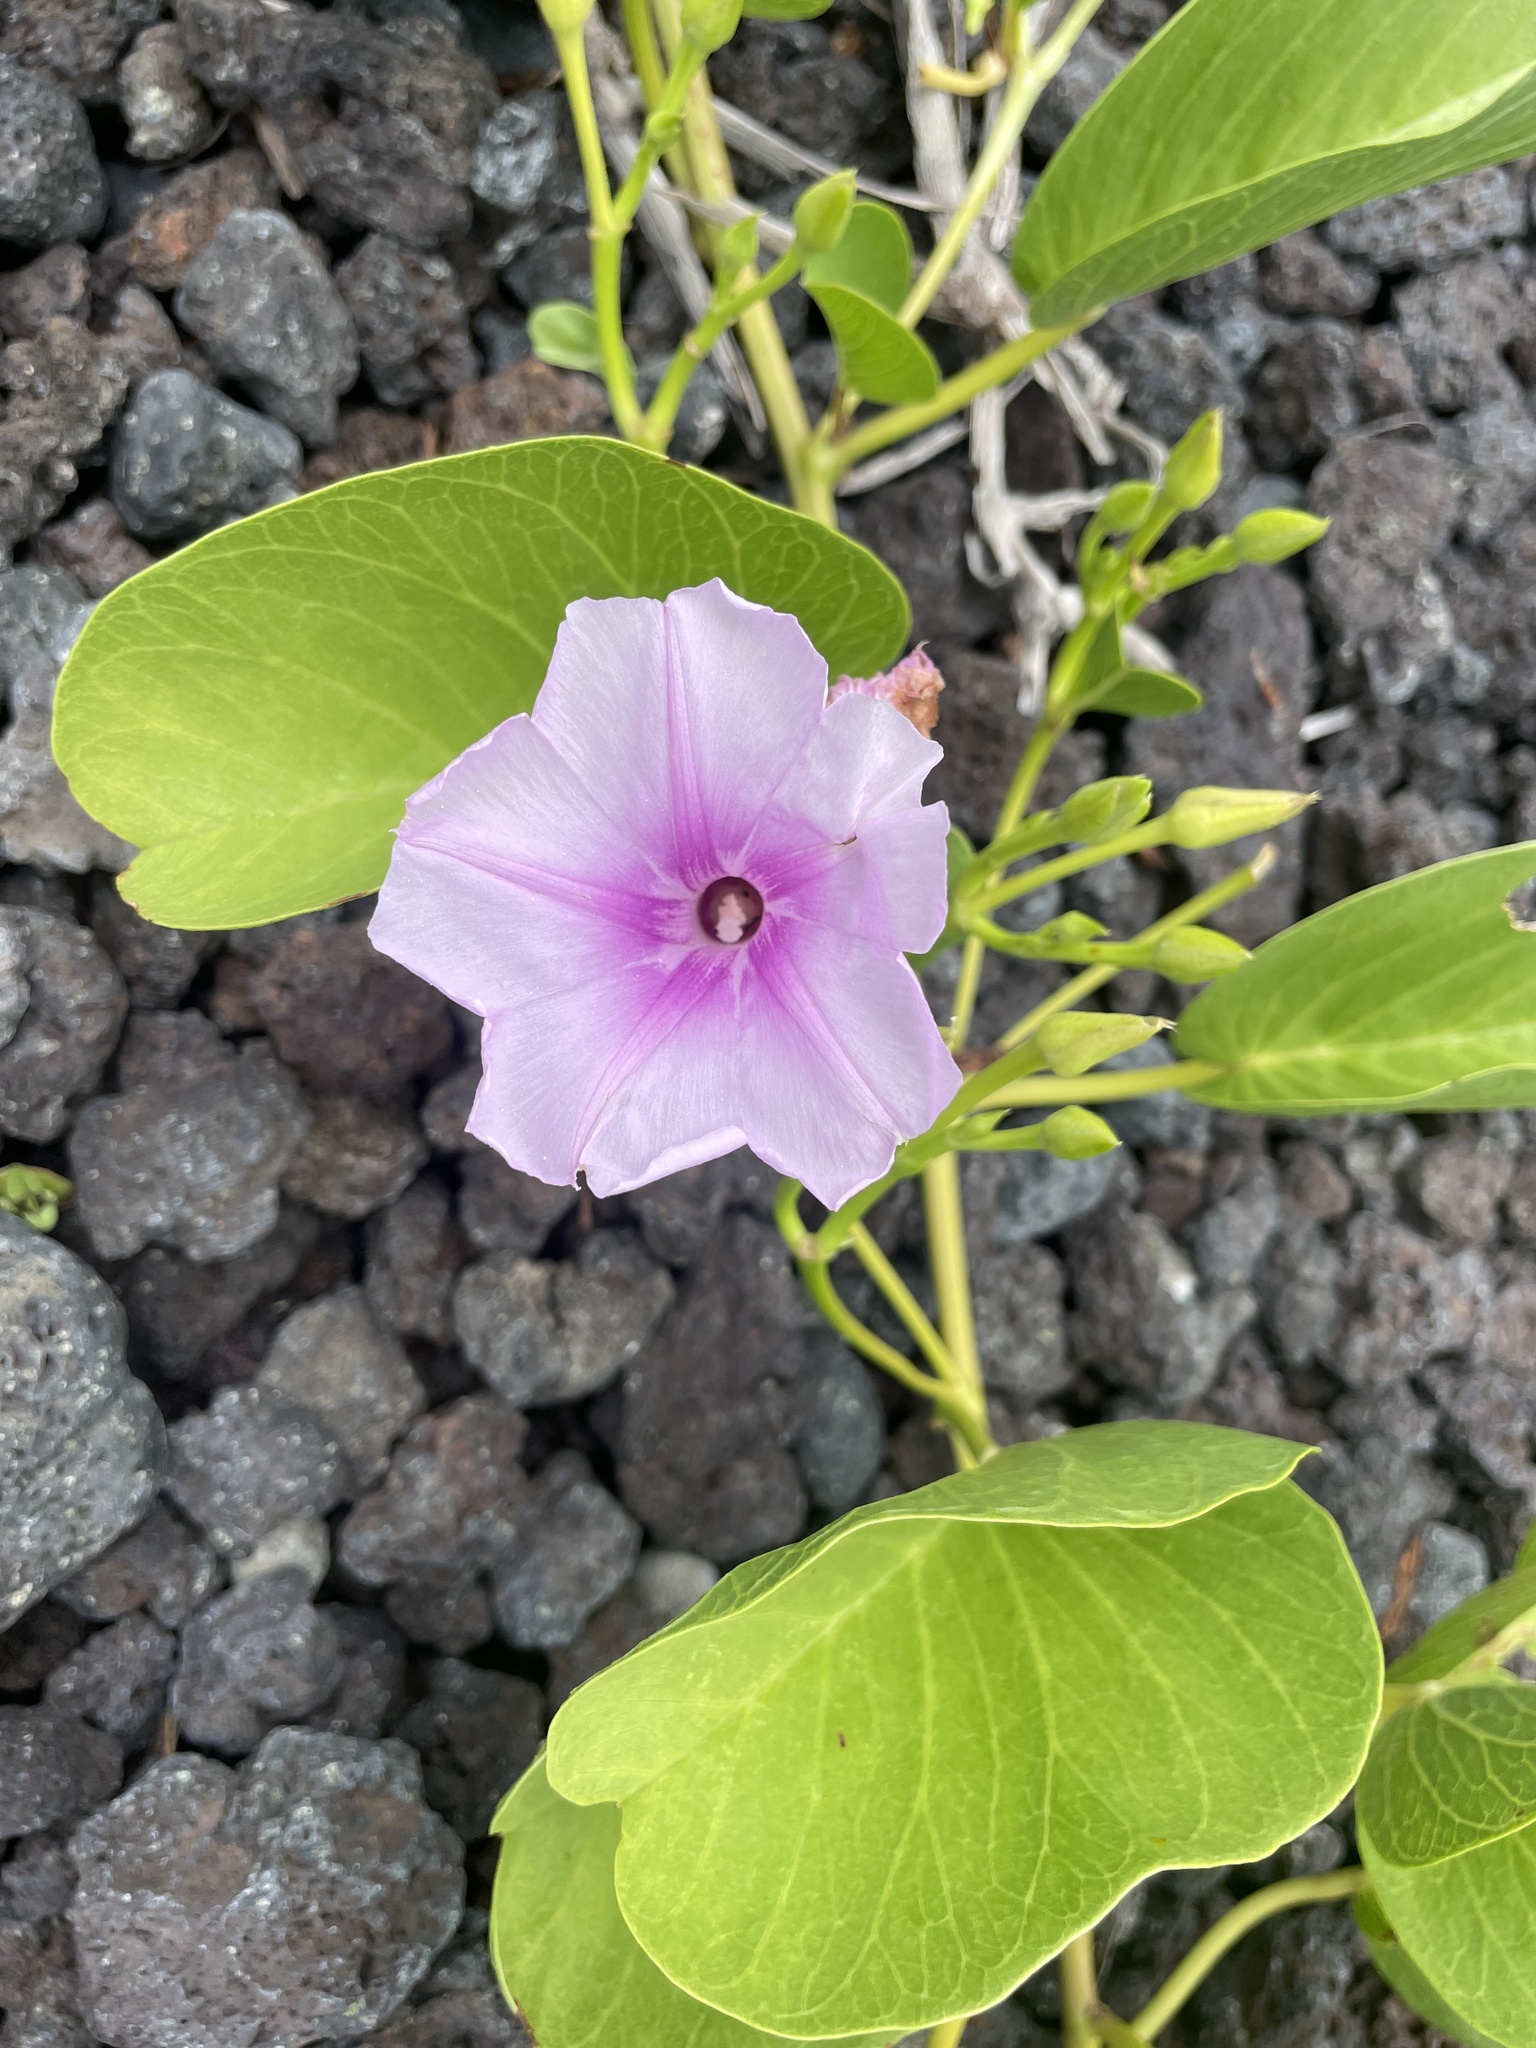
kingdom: Plantae
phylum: Tracheophyta
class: Magnoliopsida
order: Solanales
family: Convolvulaceae
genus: Ipomoea
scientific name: Ipomoea pes-caprae
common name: Beach morning glory
